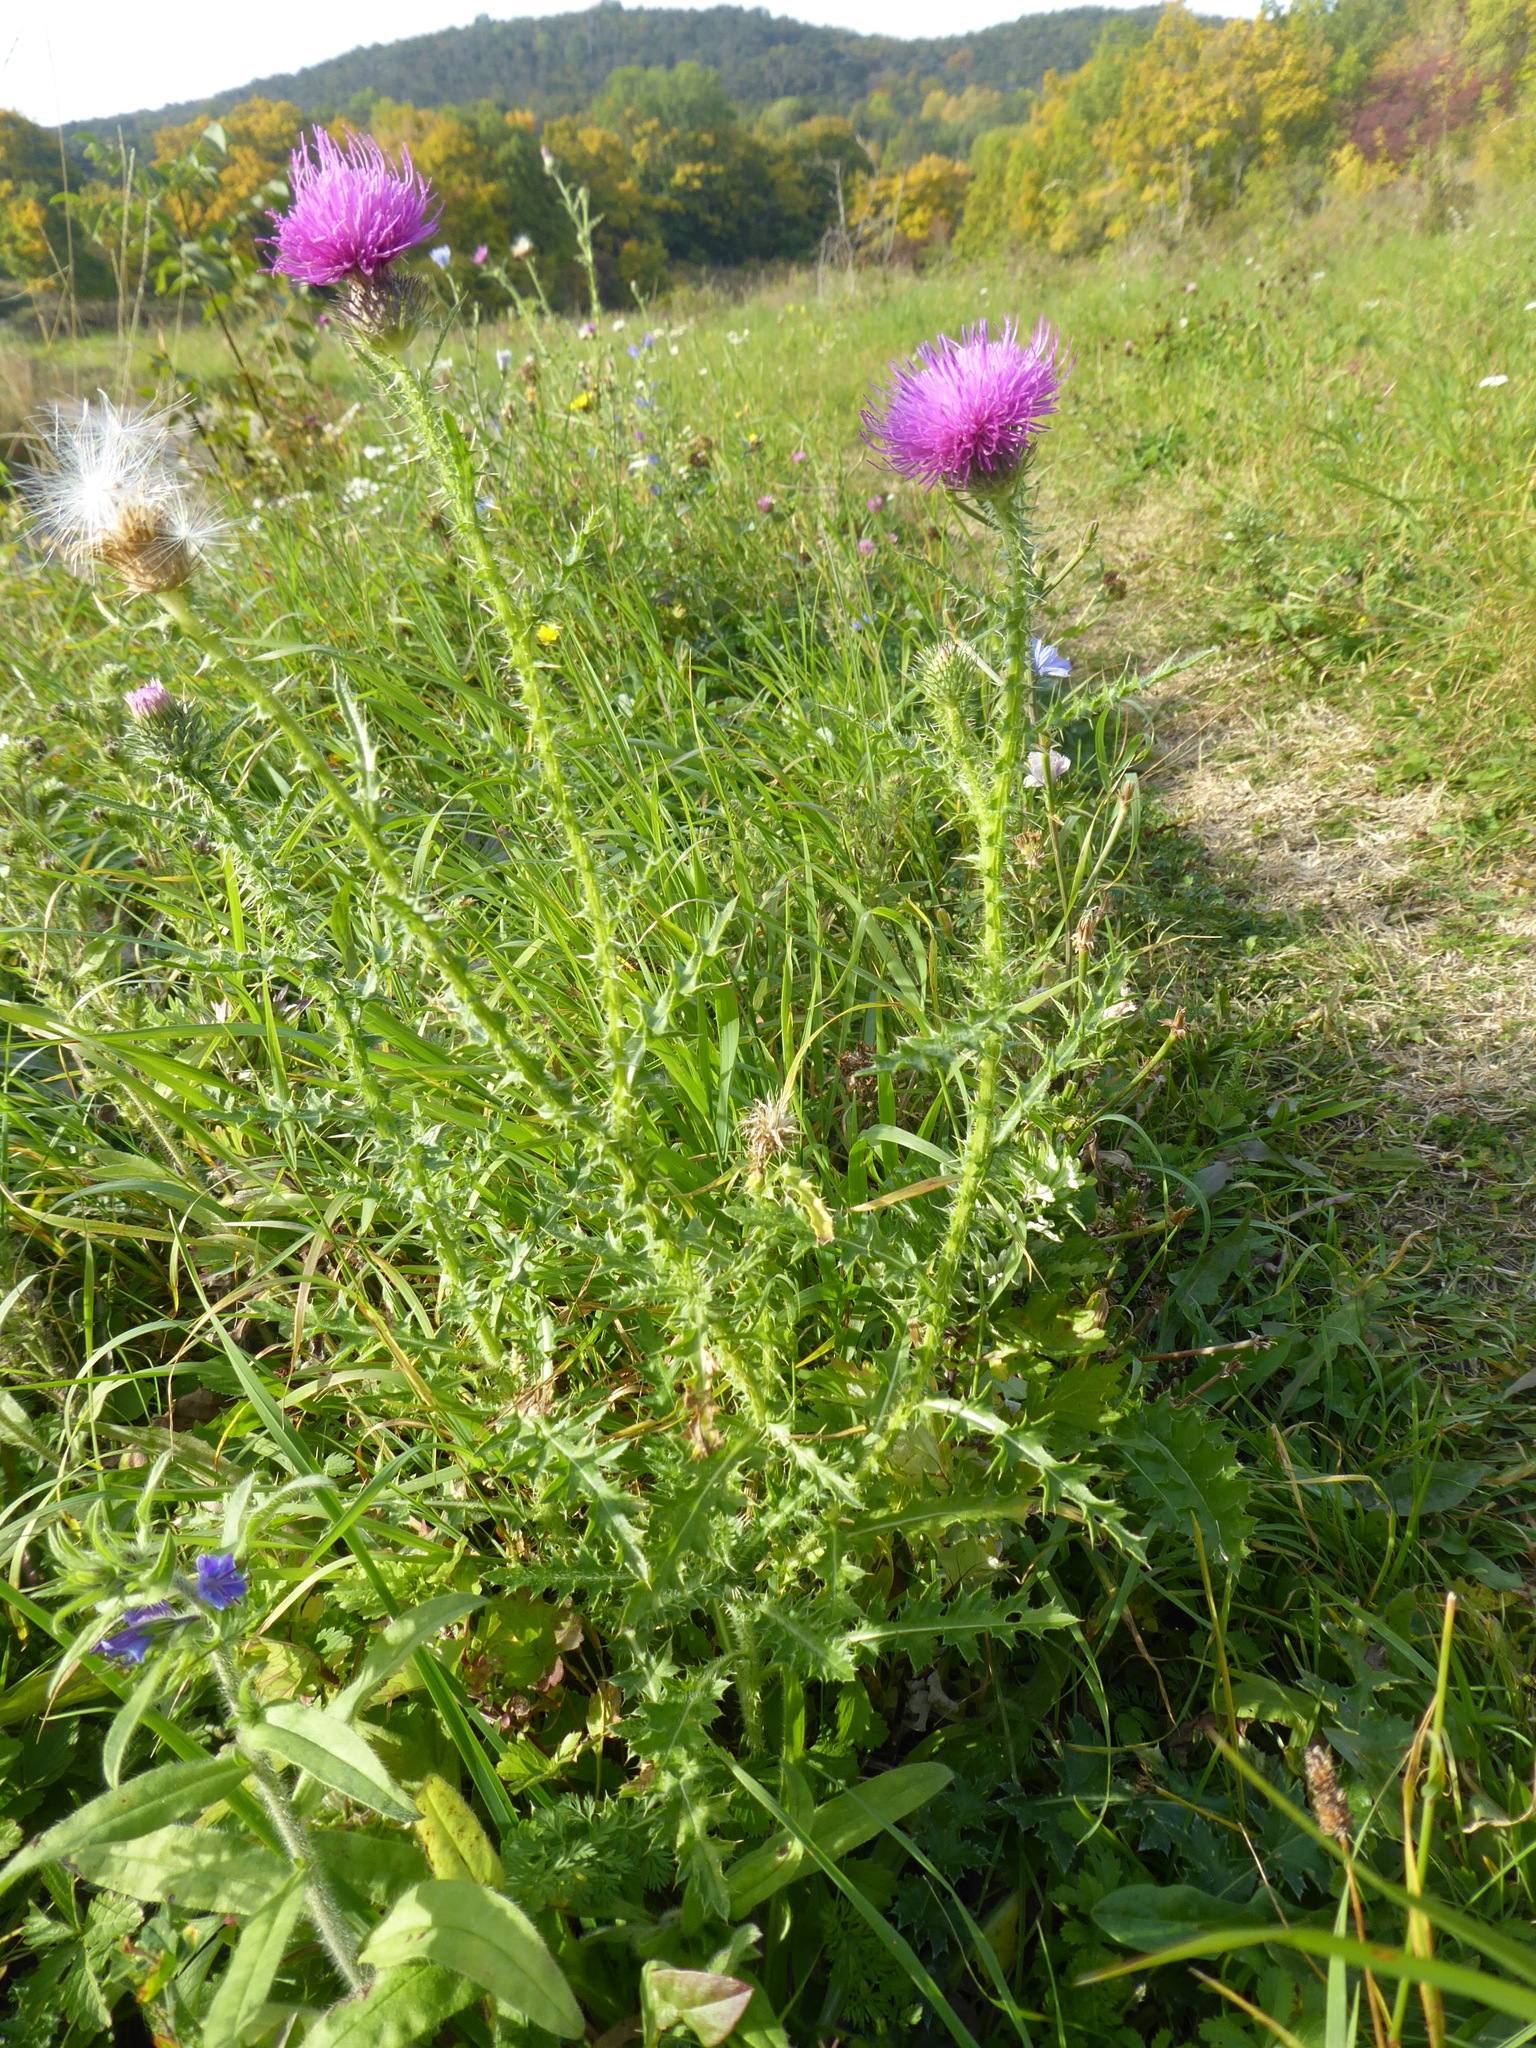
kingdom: Plantae
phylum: Tracheophyta
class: Magnoliopsida
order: Asterales
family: Asteraceae
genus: Carduus
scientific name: Carduus acanthoides
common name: Plumeless thistle
